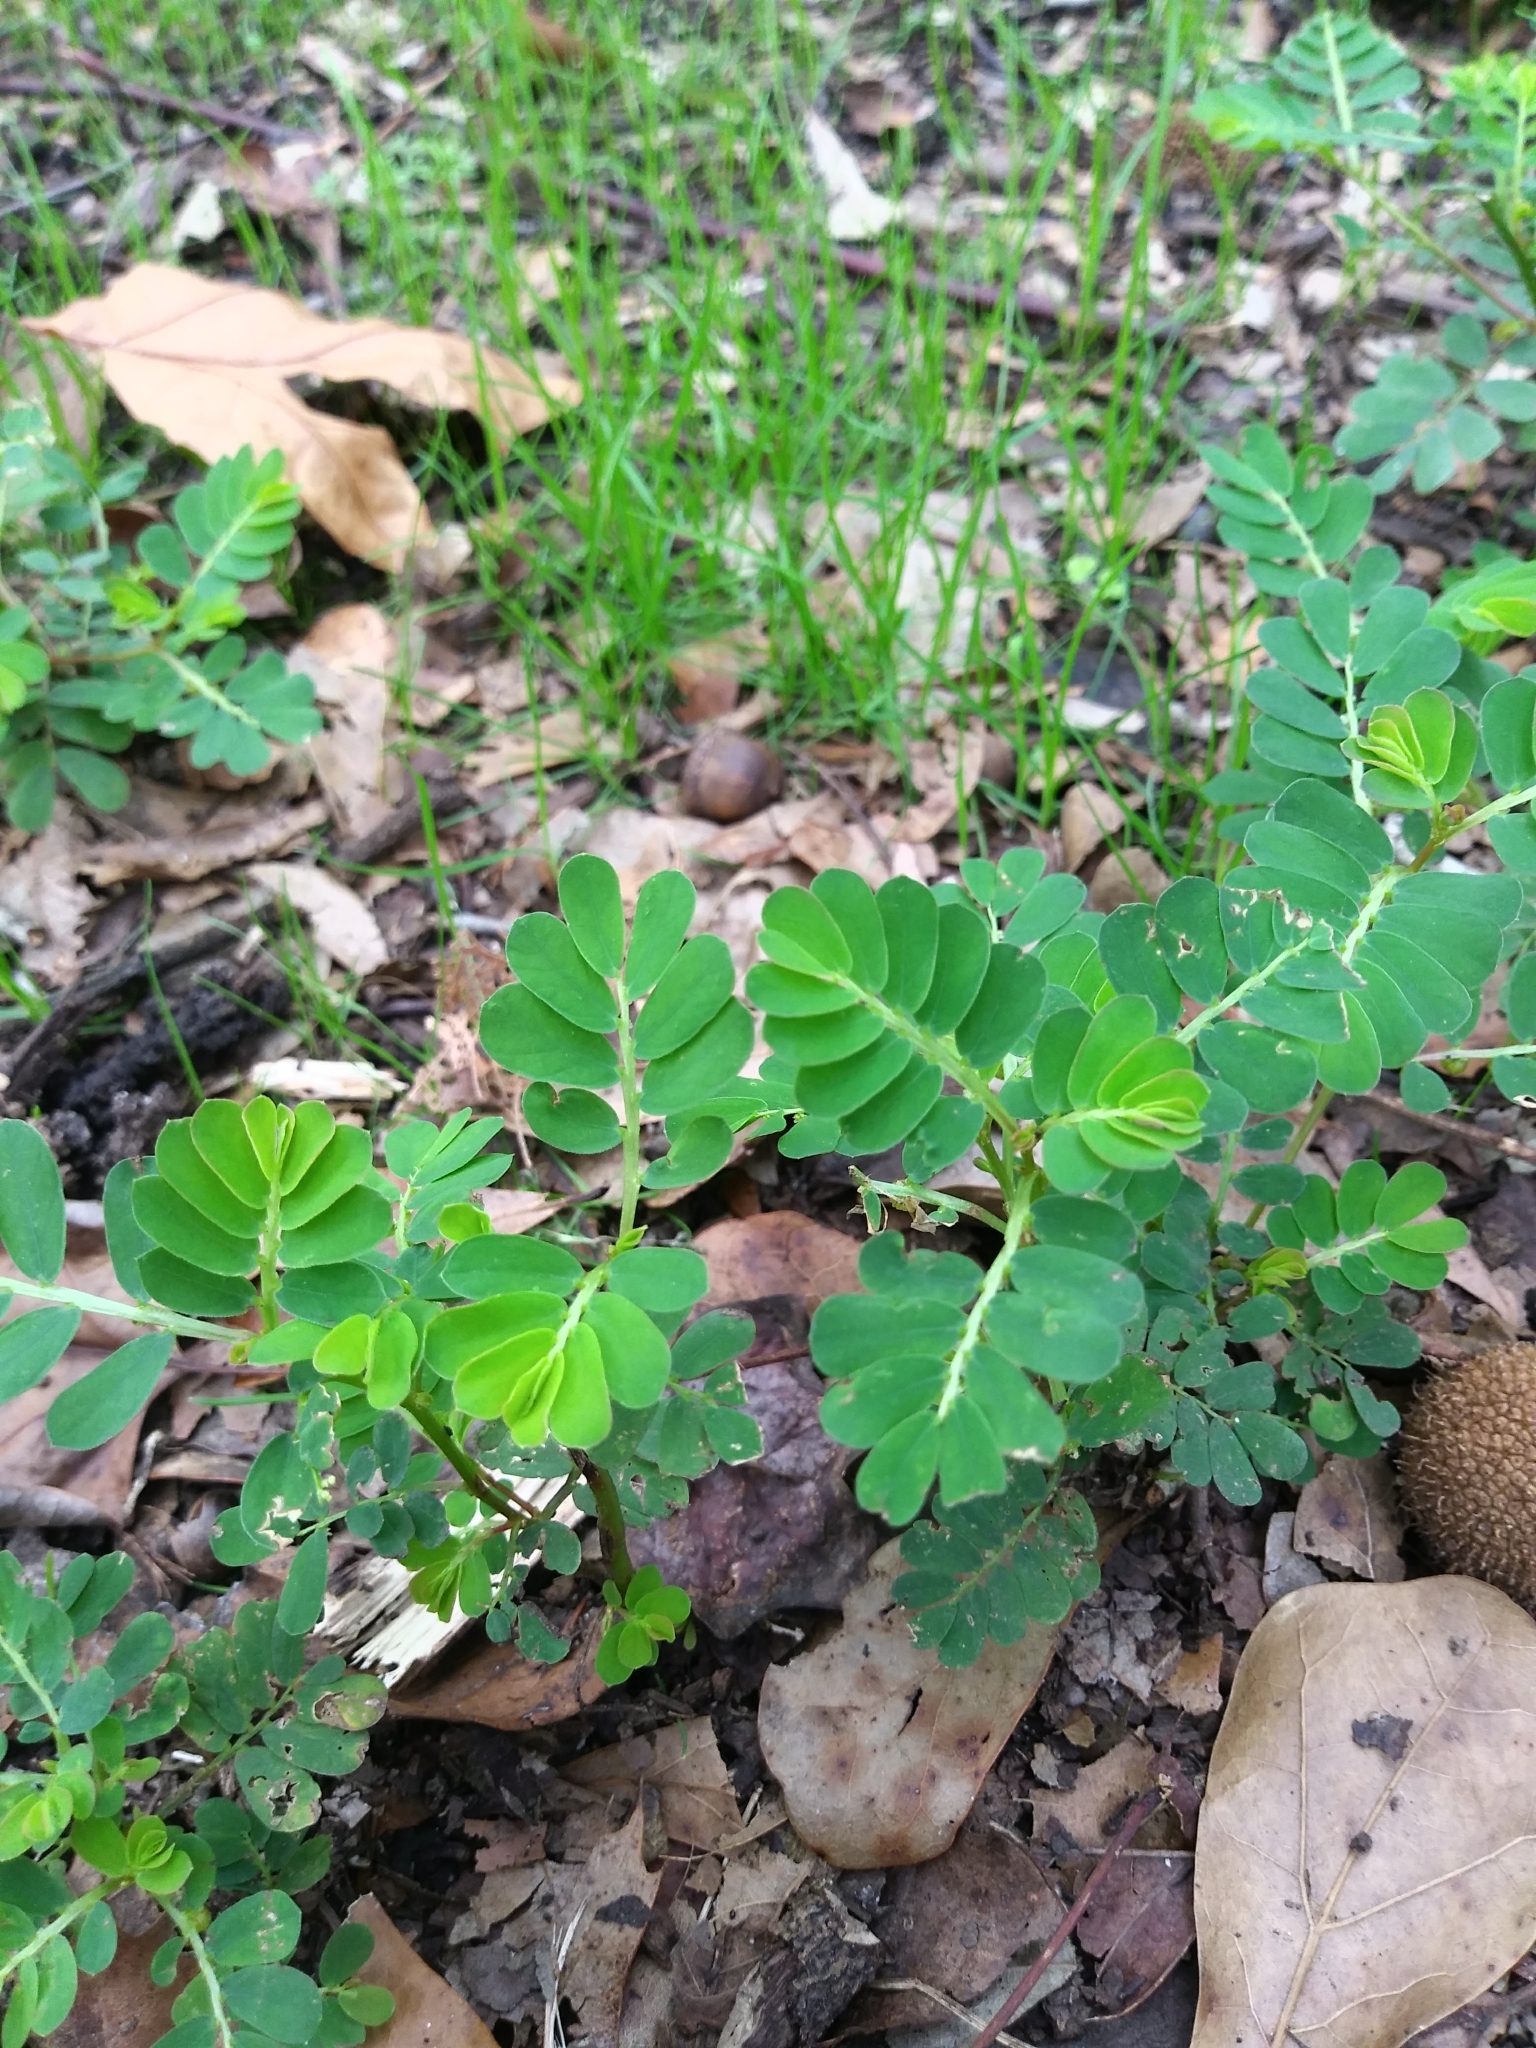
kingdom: Plantae
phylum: Tracheophyta
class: Magnoliopsida
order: Malpighiales
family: Phyllanthaceae
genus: Phyllanthus
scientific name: Phyllanthus urinaria
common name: Chamber bitter
